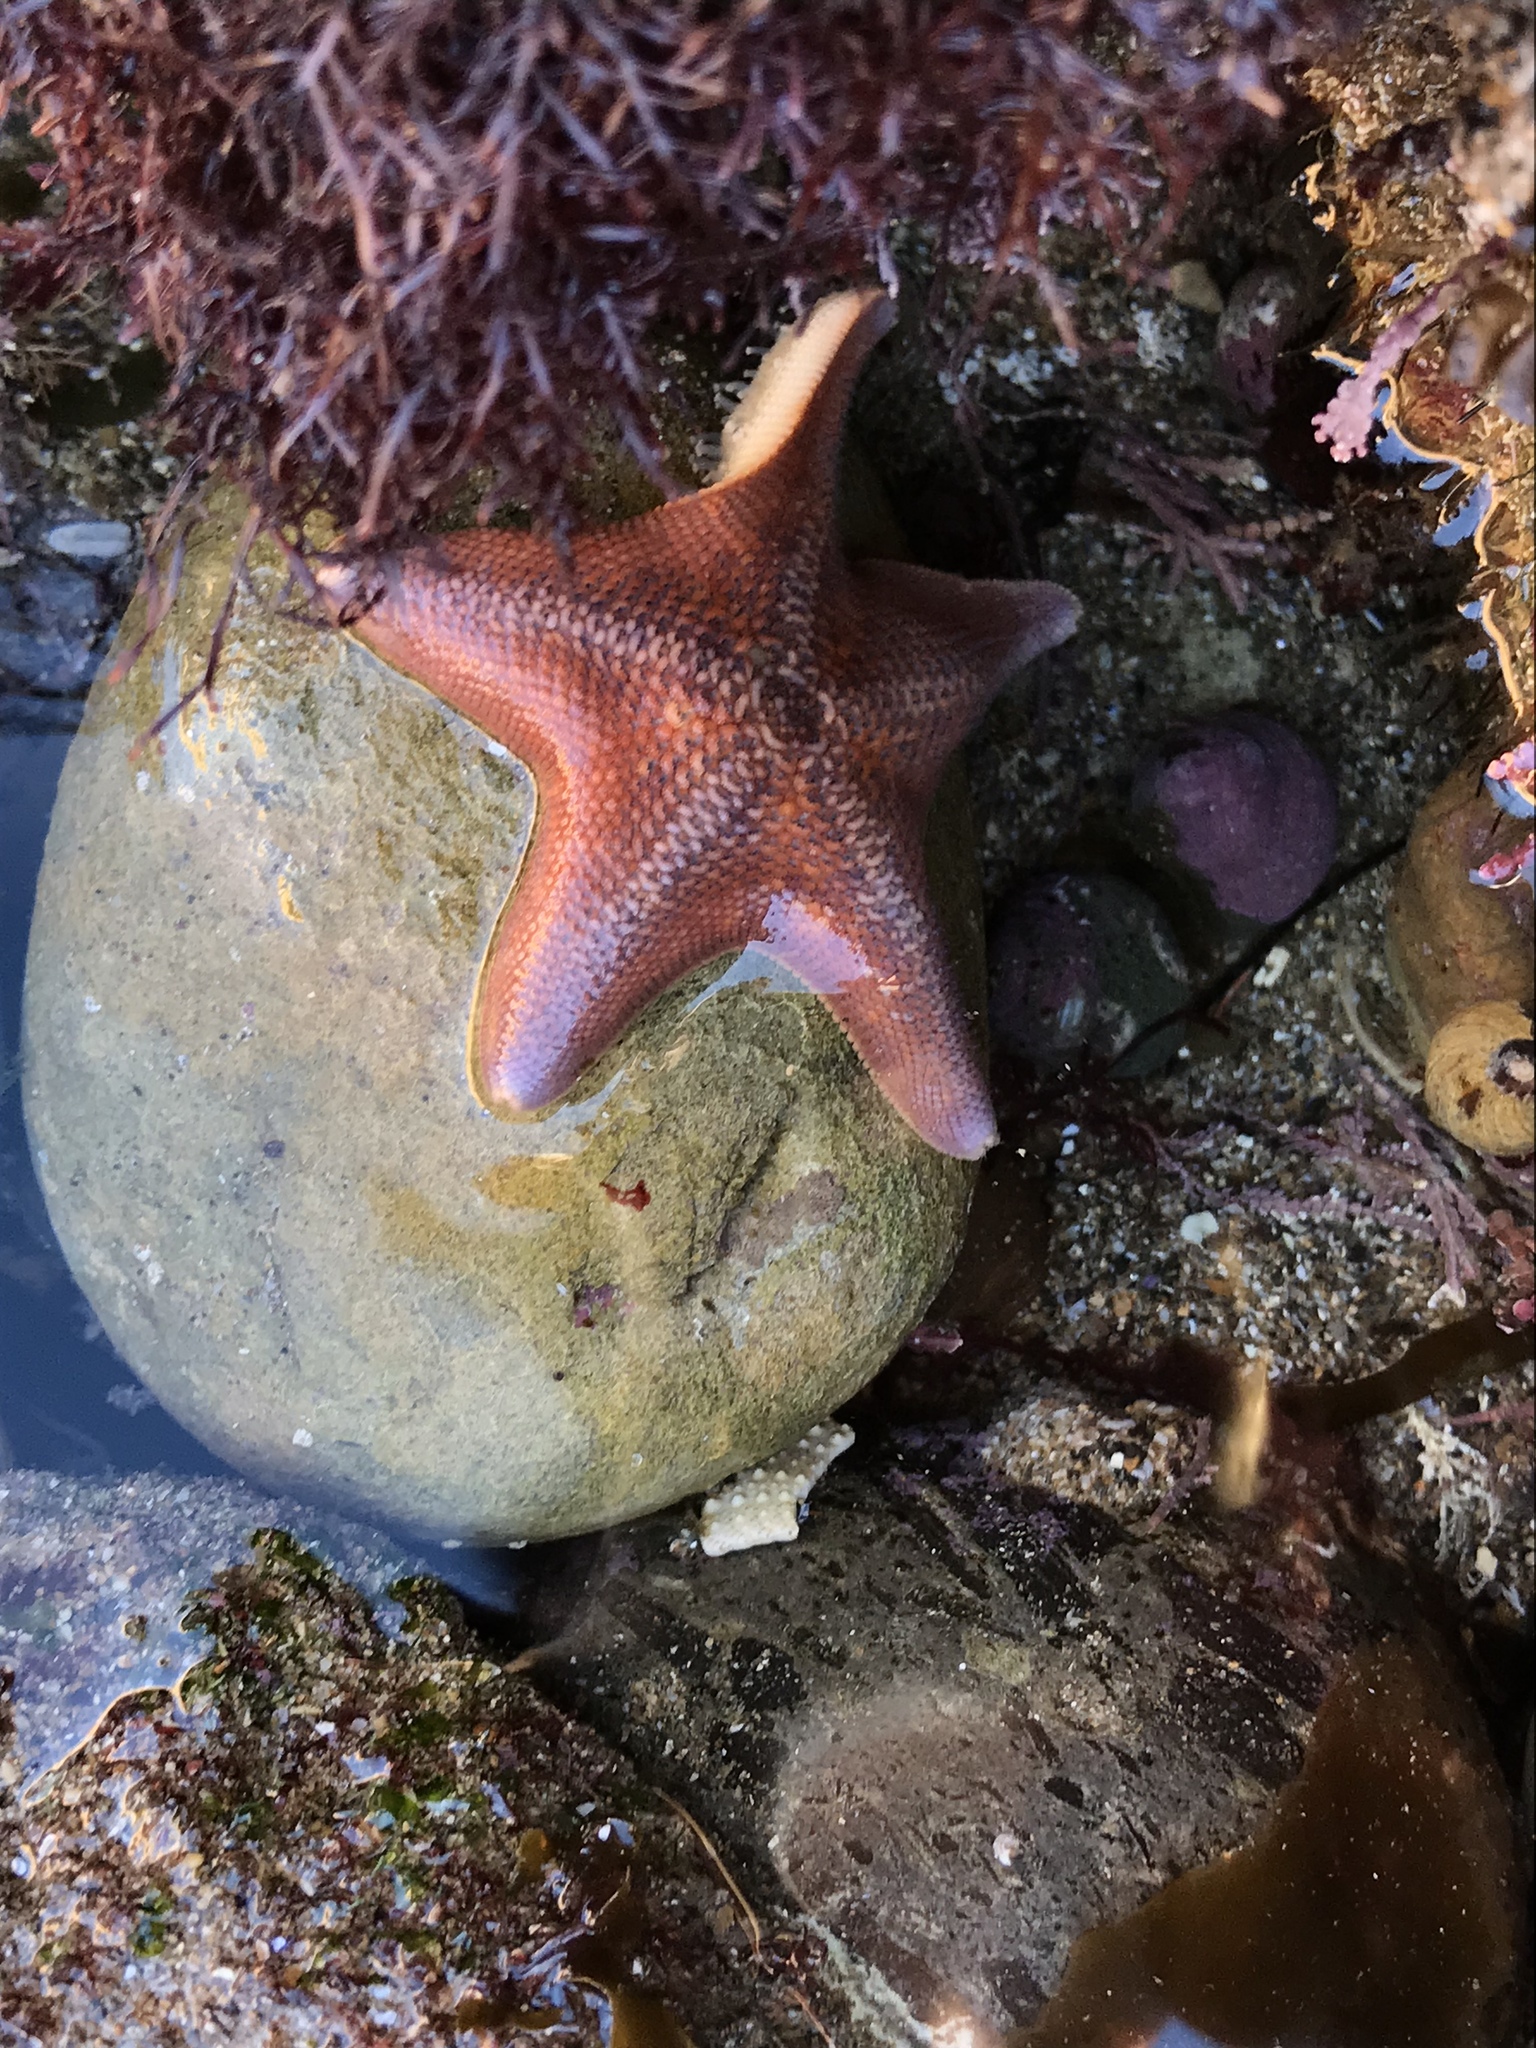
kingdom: Animalia
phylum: Echinodermata
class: Asteroidea
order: Valvatida
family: Asterinidae
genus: Patiria
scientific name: Patiria miniata
